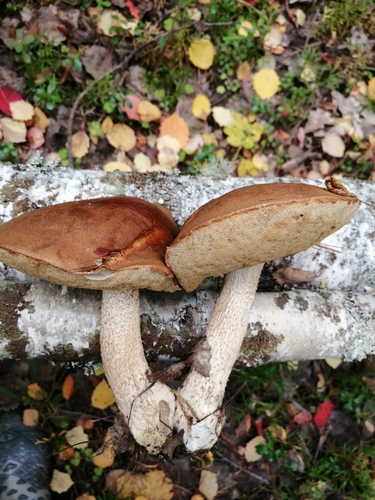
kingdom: Fungi
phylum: Basidiomycota
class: Agaricomycetes
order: Boletales
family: Boletaceae
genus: Leccinum
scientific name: Leccinum scabrum
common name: Blushing bolete
